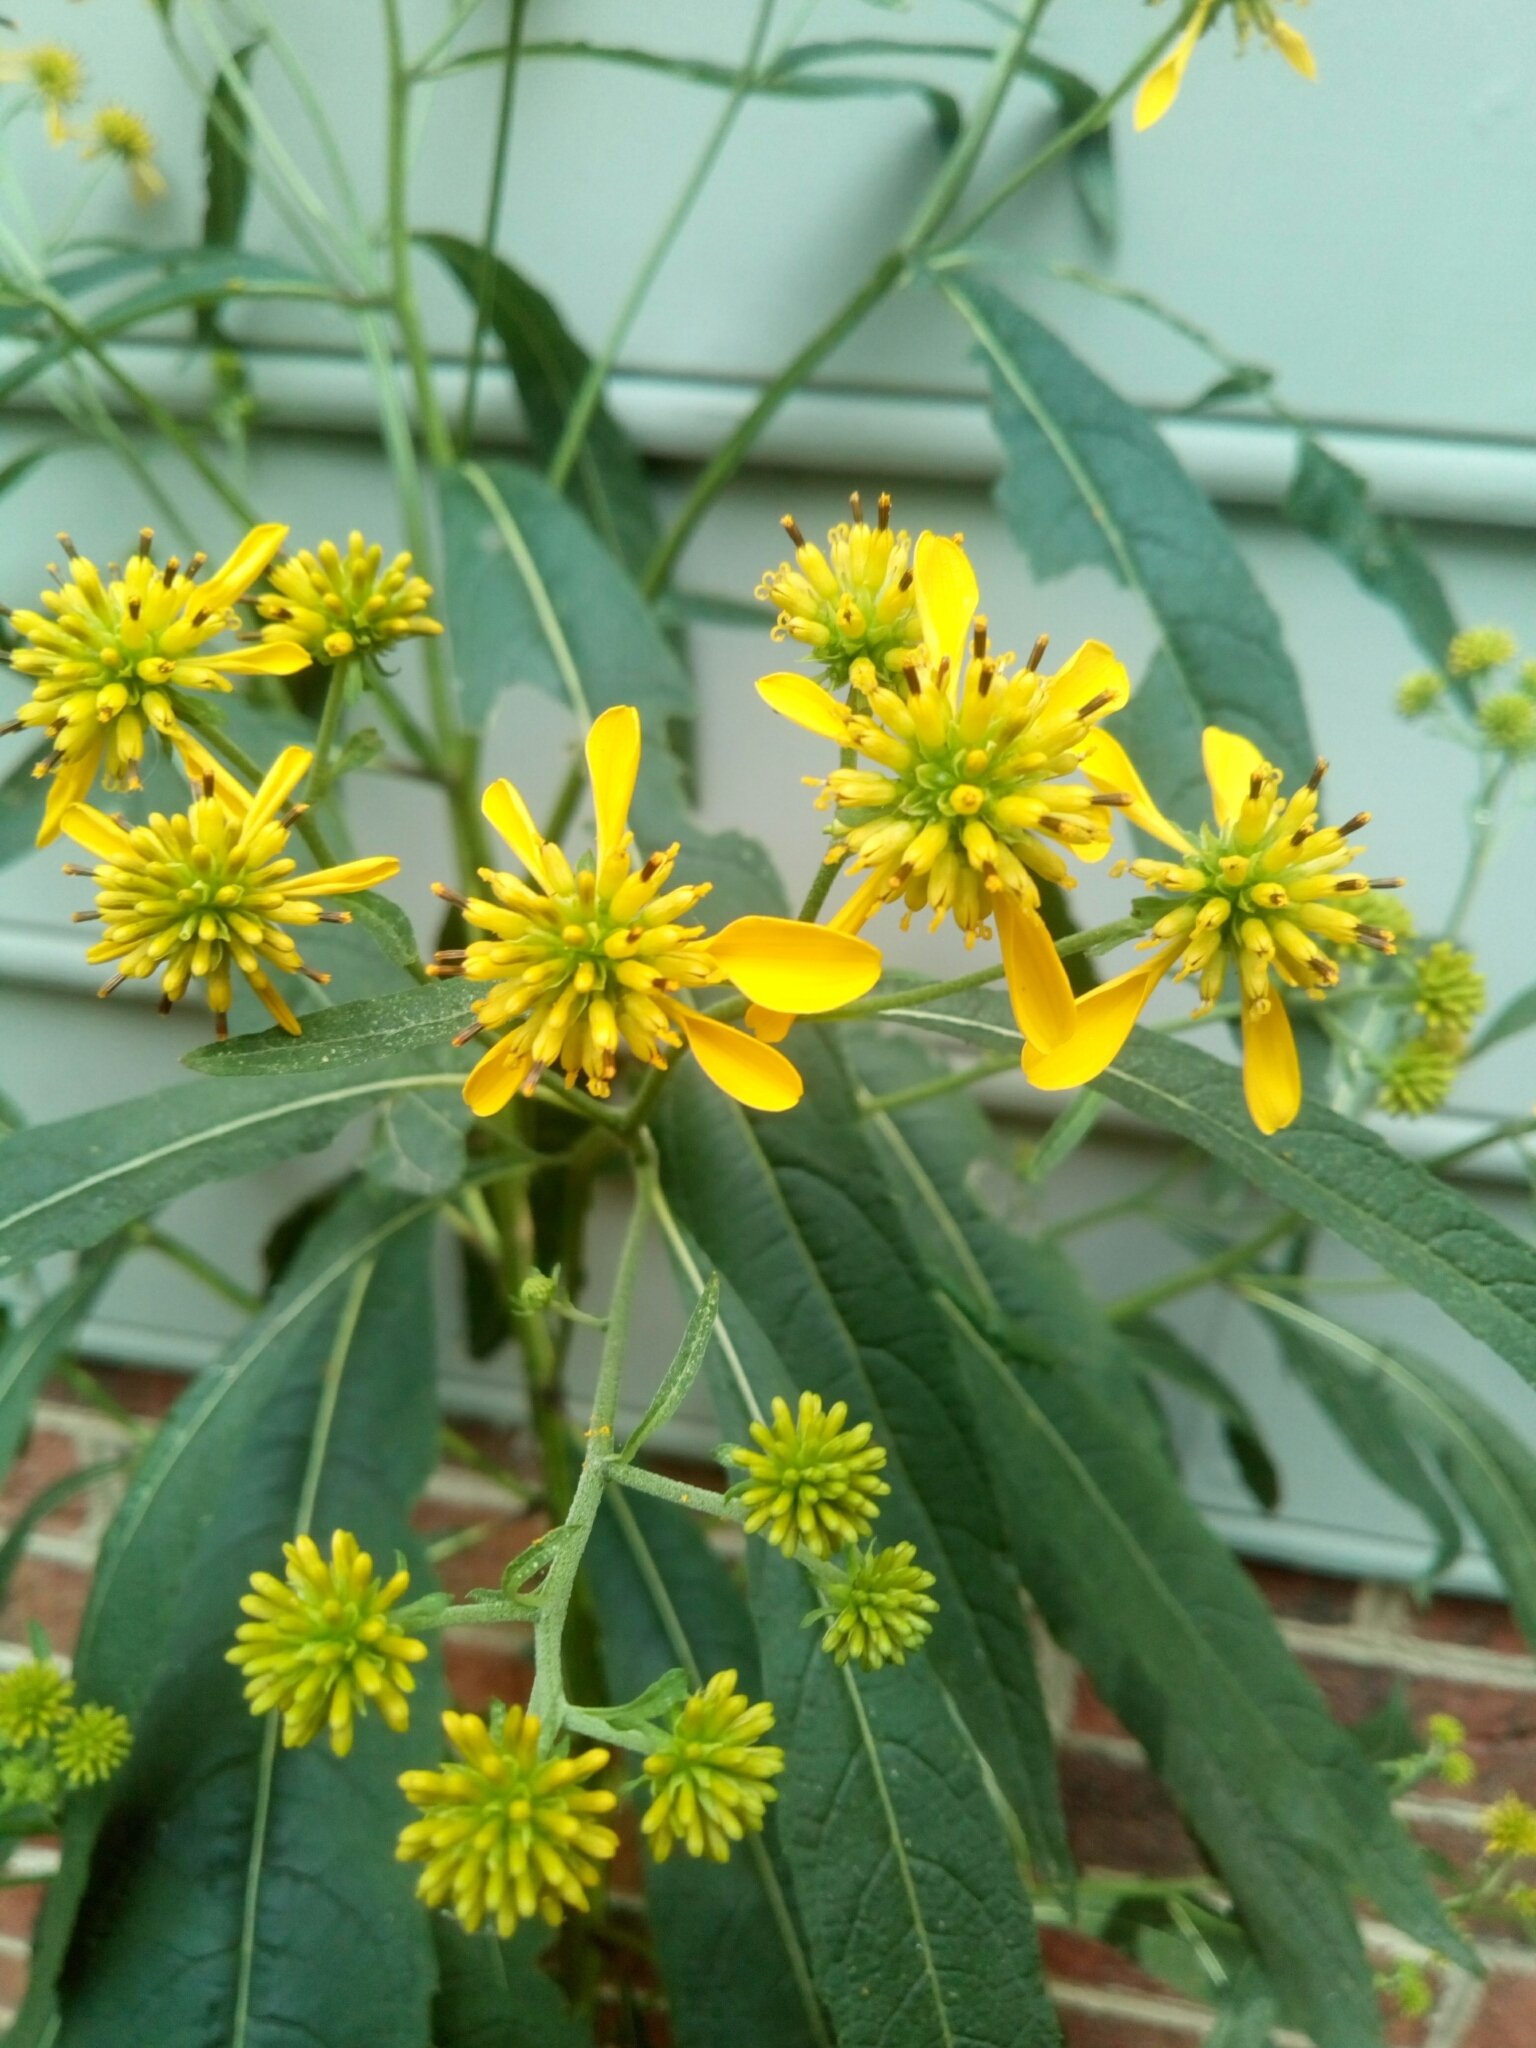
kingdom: Plantae
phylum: Tracheophyta
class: Magnoliopsida
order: Asterales
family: Asteraceae
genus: Verbesina
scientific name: Verbesina alternifolia
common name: Wingstem
